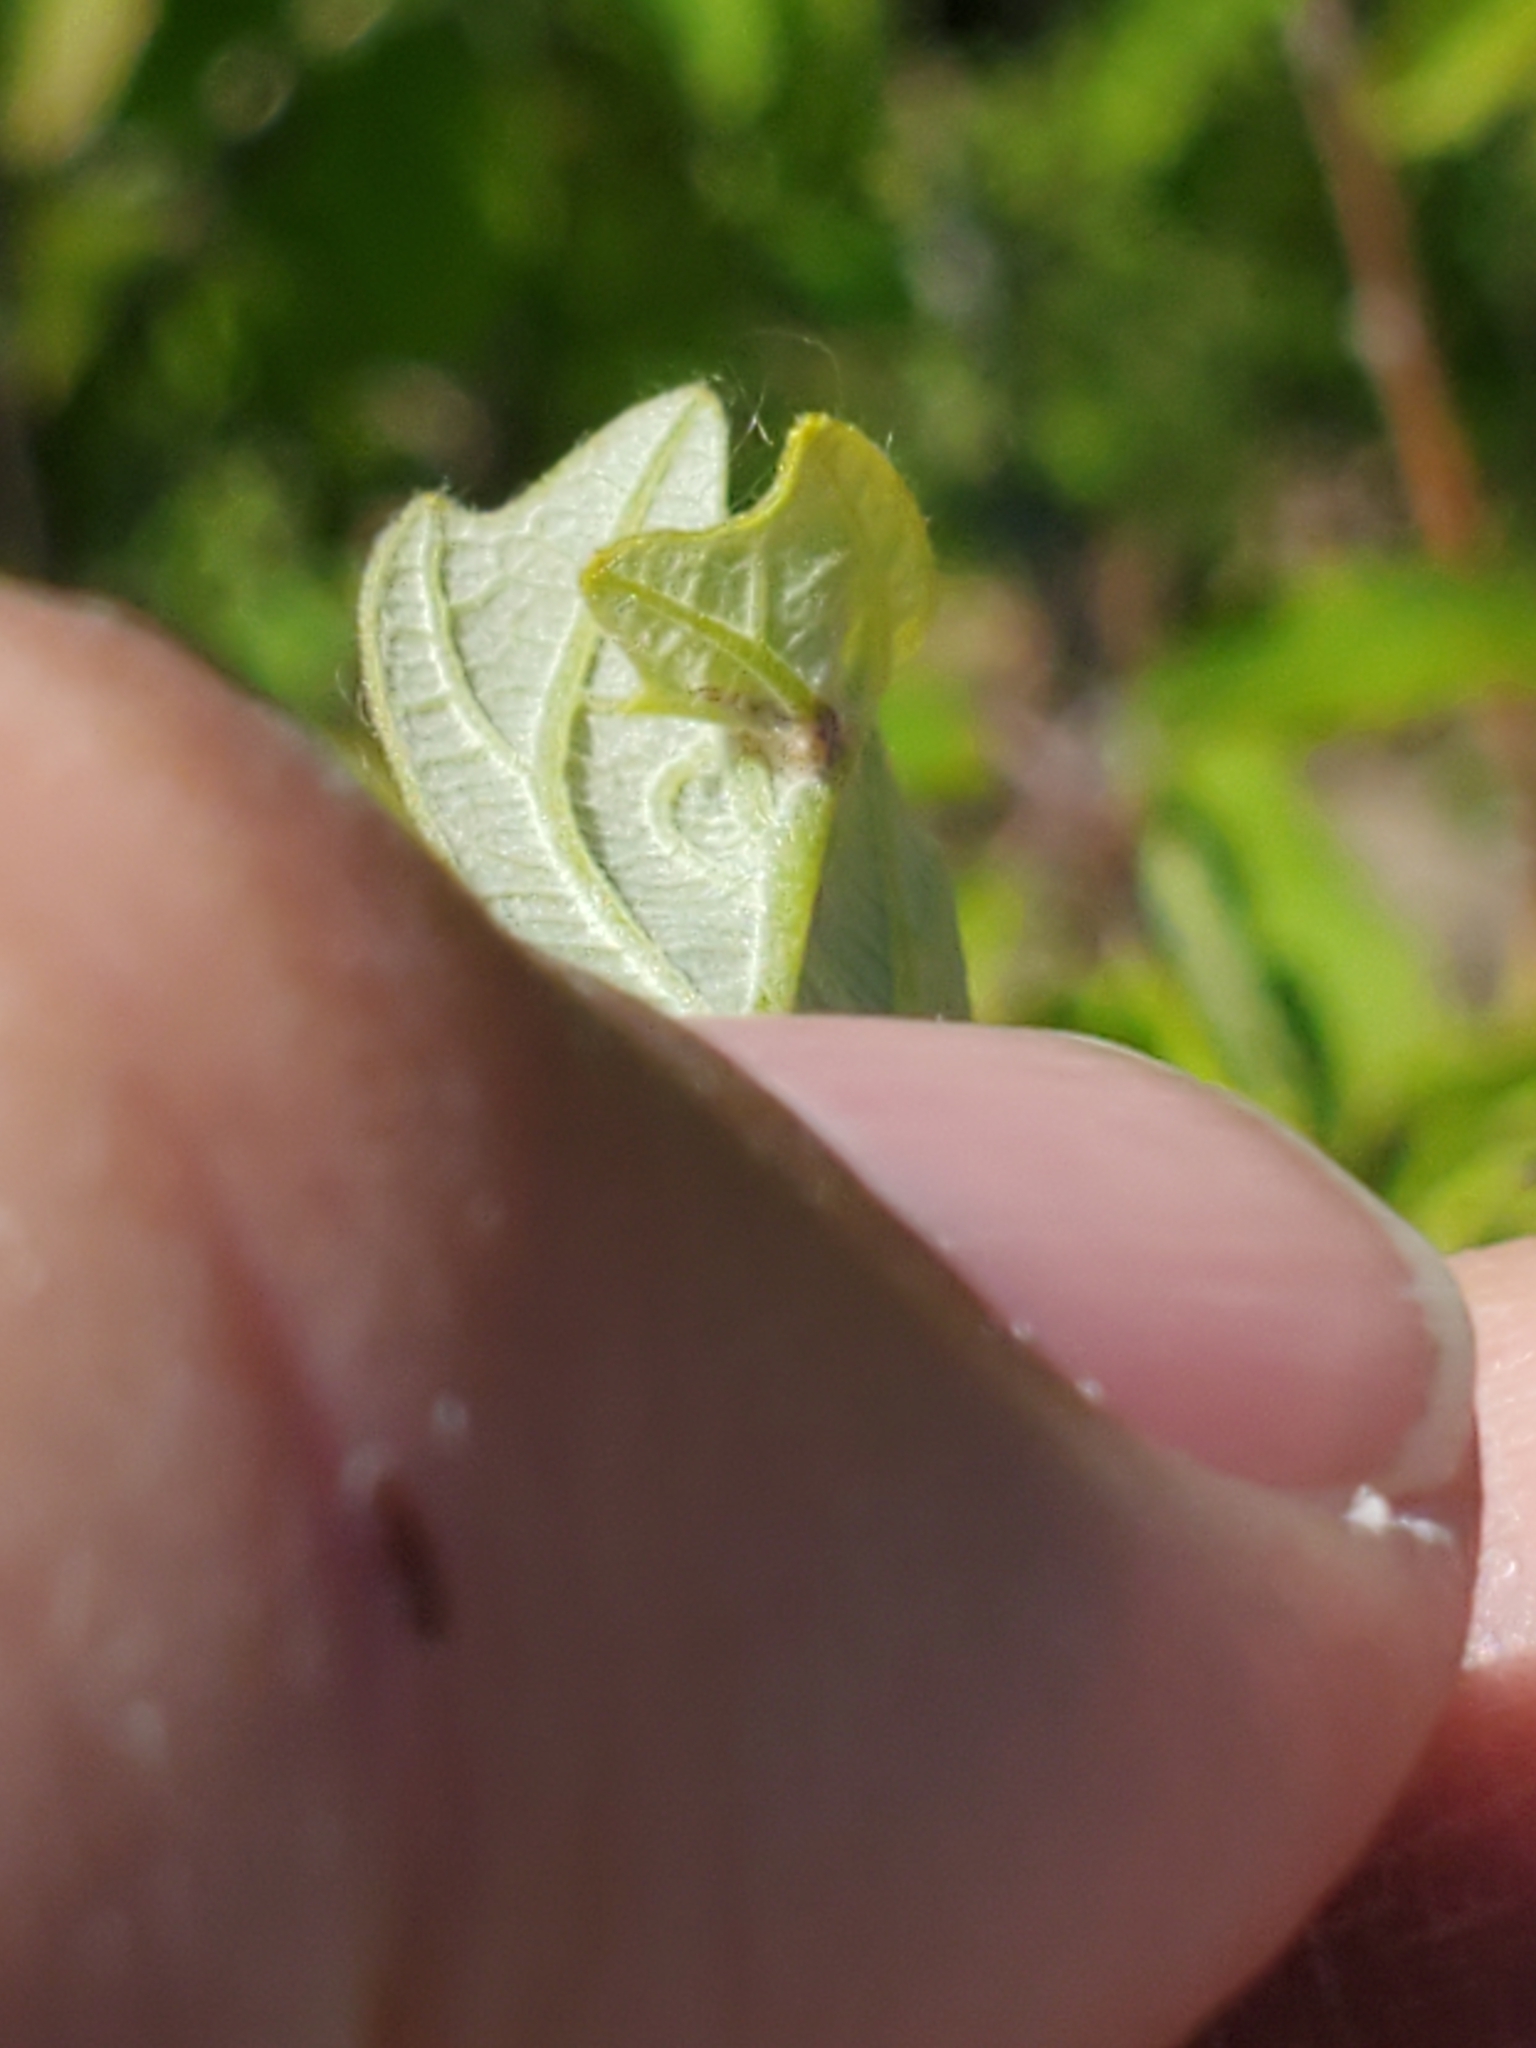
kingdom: Animalia
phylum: Arthropoda
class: Insecta
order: Hymenoptera
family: Cynipidae
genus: Neuroterus
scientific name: Neuroterus
